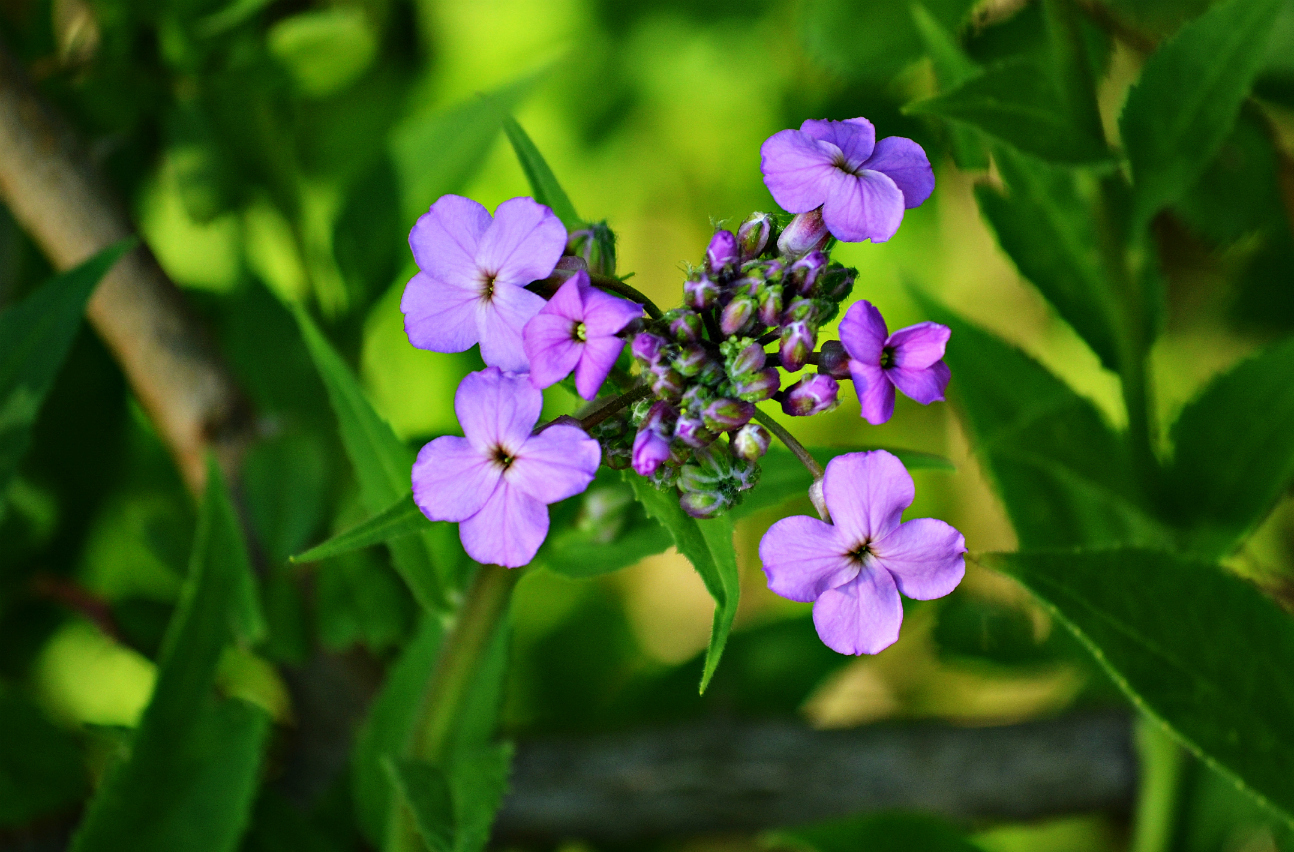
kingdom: Plantae
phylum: Tracheophyta
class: Magnoliopsida
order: Brassicales
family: Brassicaceae
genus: Hesperis
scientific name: Hesperis matronalis
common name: Dame's-violet
